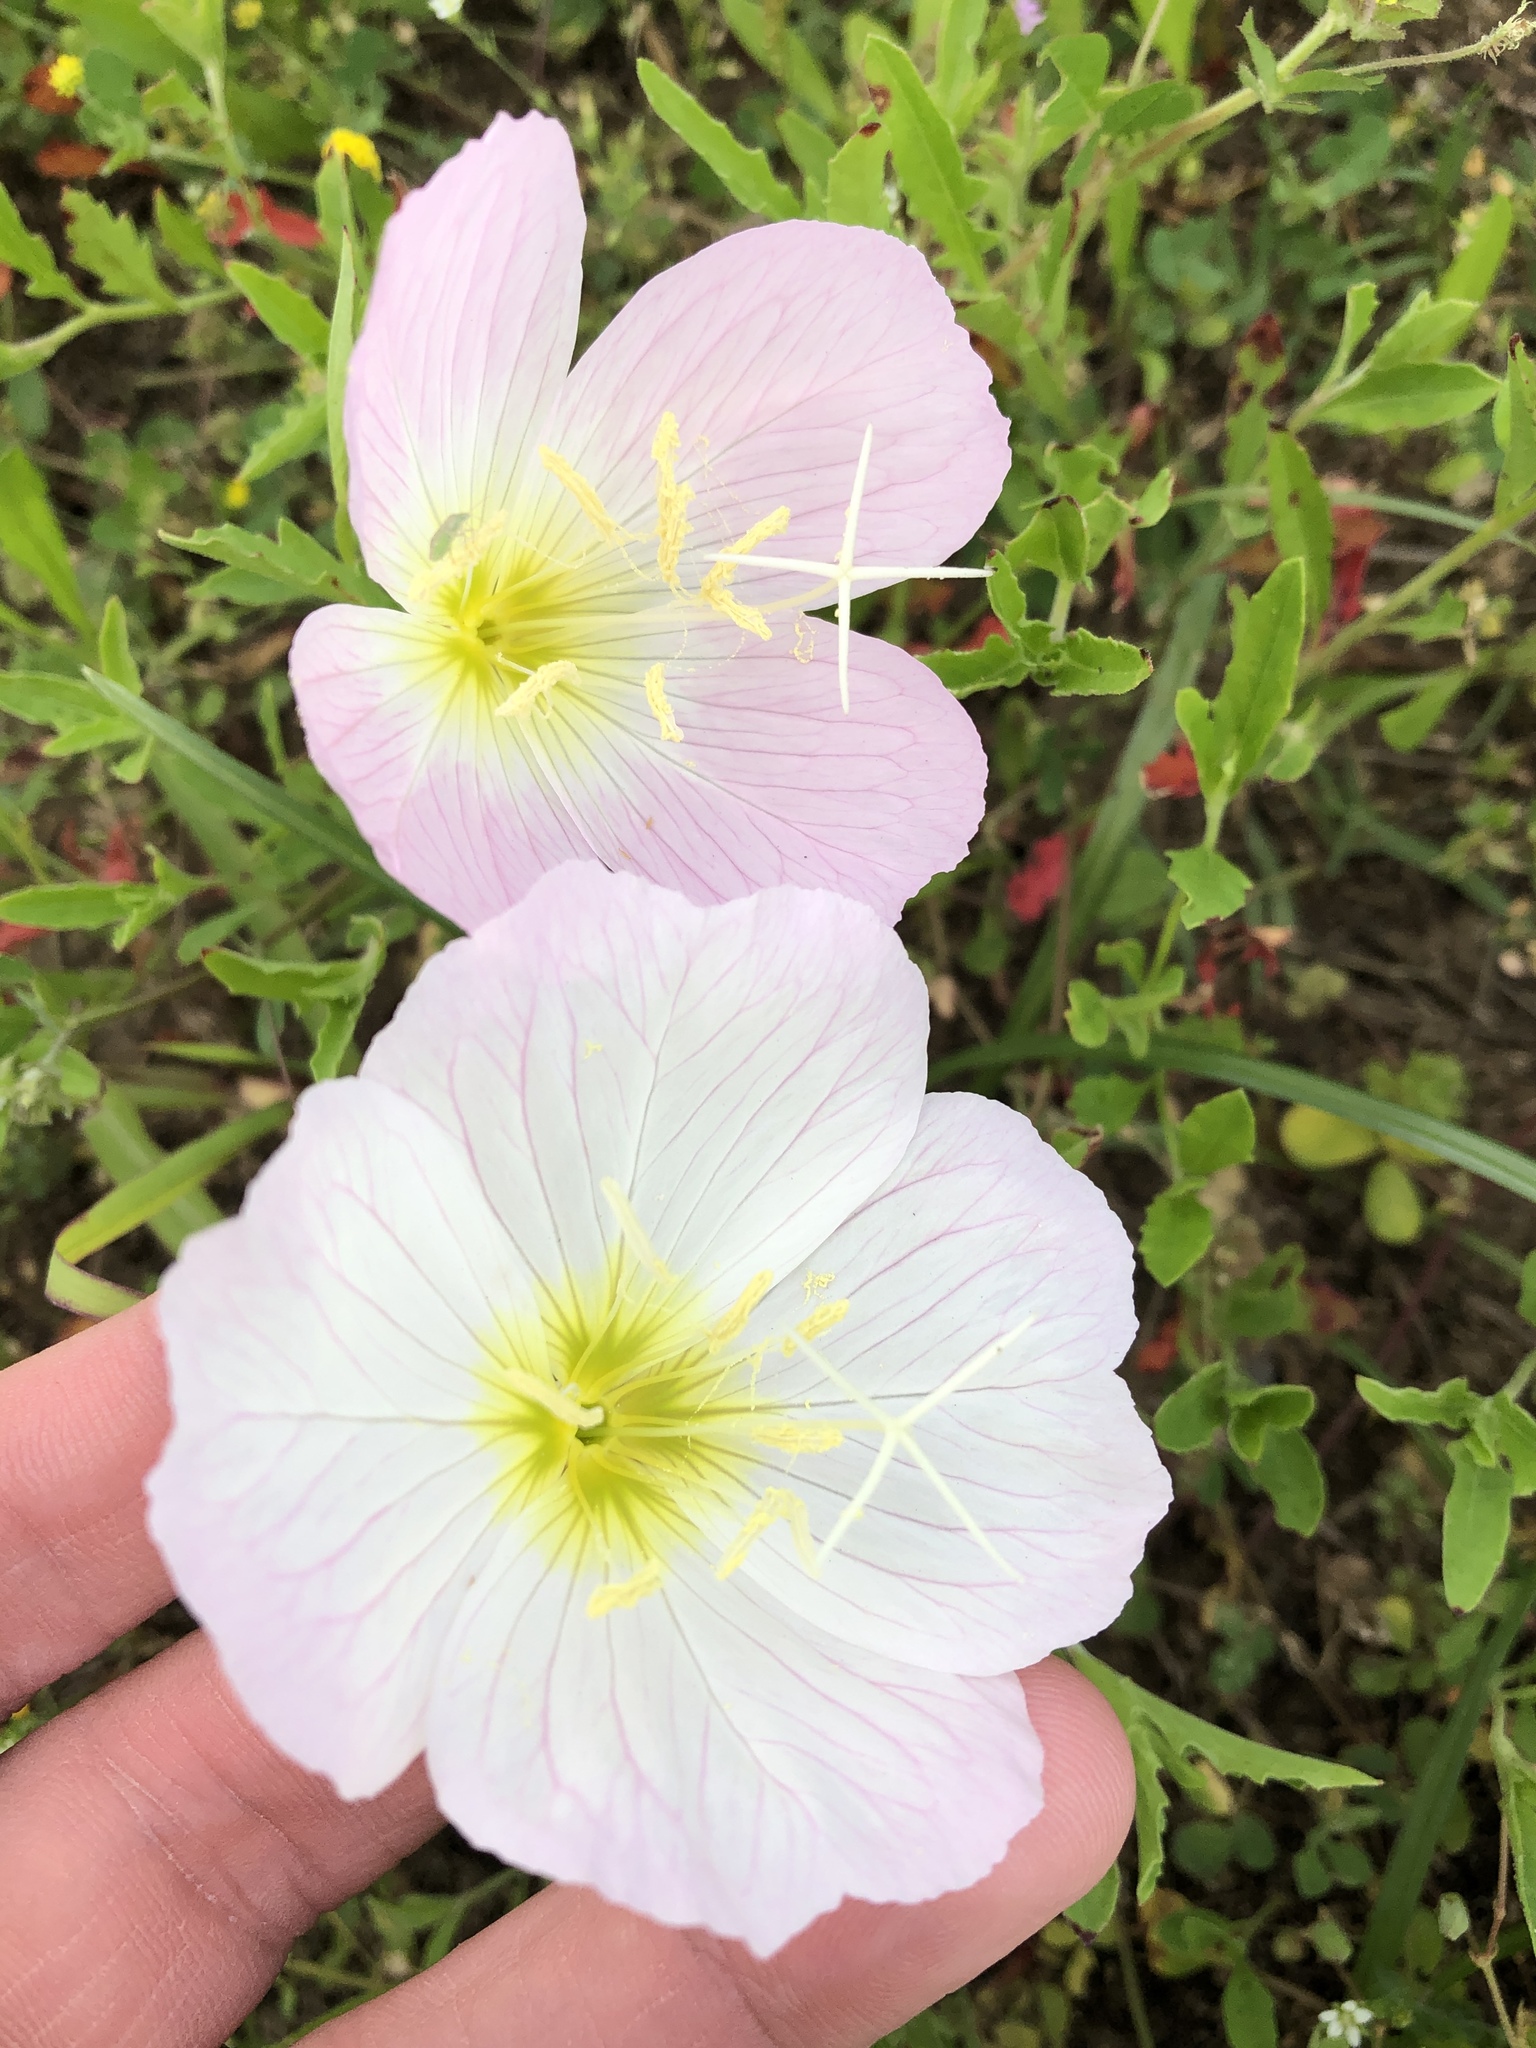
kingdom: Plantae
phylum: Tracheophyta
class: Magnoliopsida
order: Myrtales
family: Onagraceae
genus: Oenothera
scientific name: Oenothera speciosa
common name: White evening-primrose
